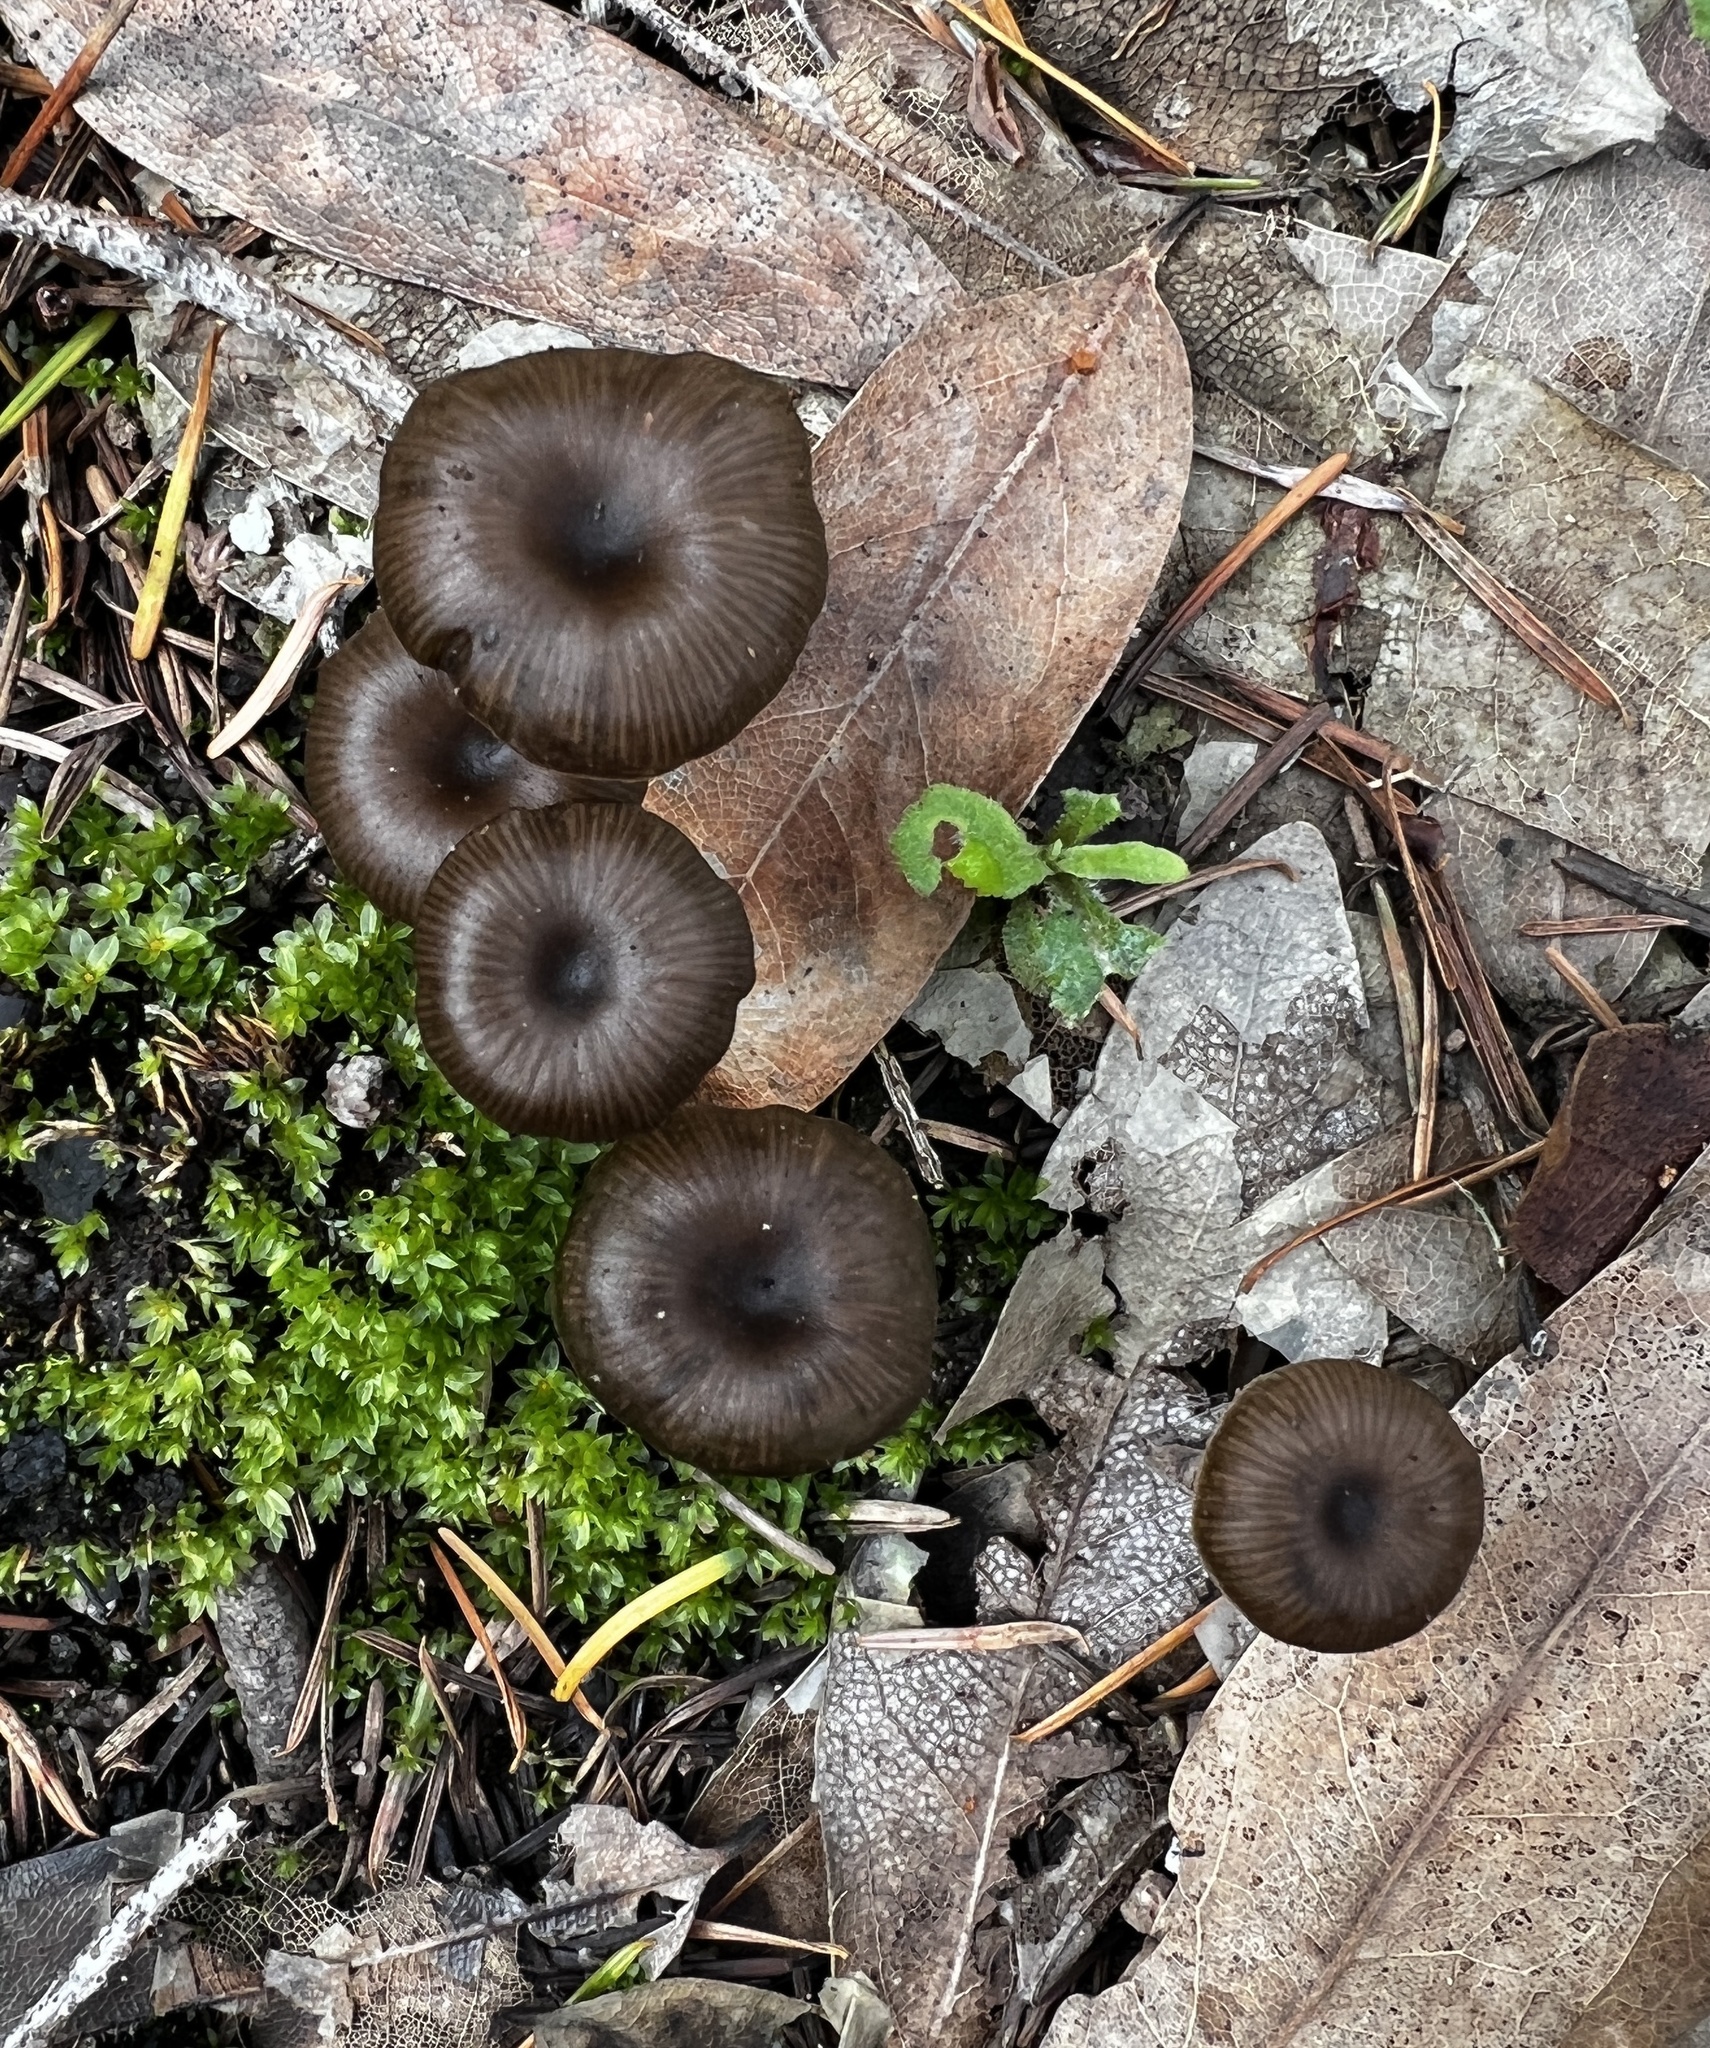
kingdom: Fungi
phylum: Basidiomycota
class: Agaricomycetes
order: Agaricales
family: Tricholomataceae
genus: Myxomphalia
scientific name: Myxomphalia maura
